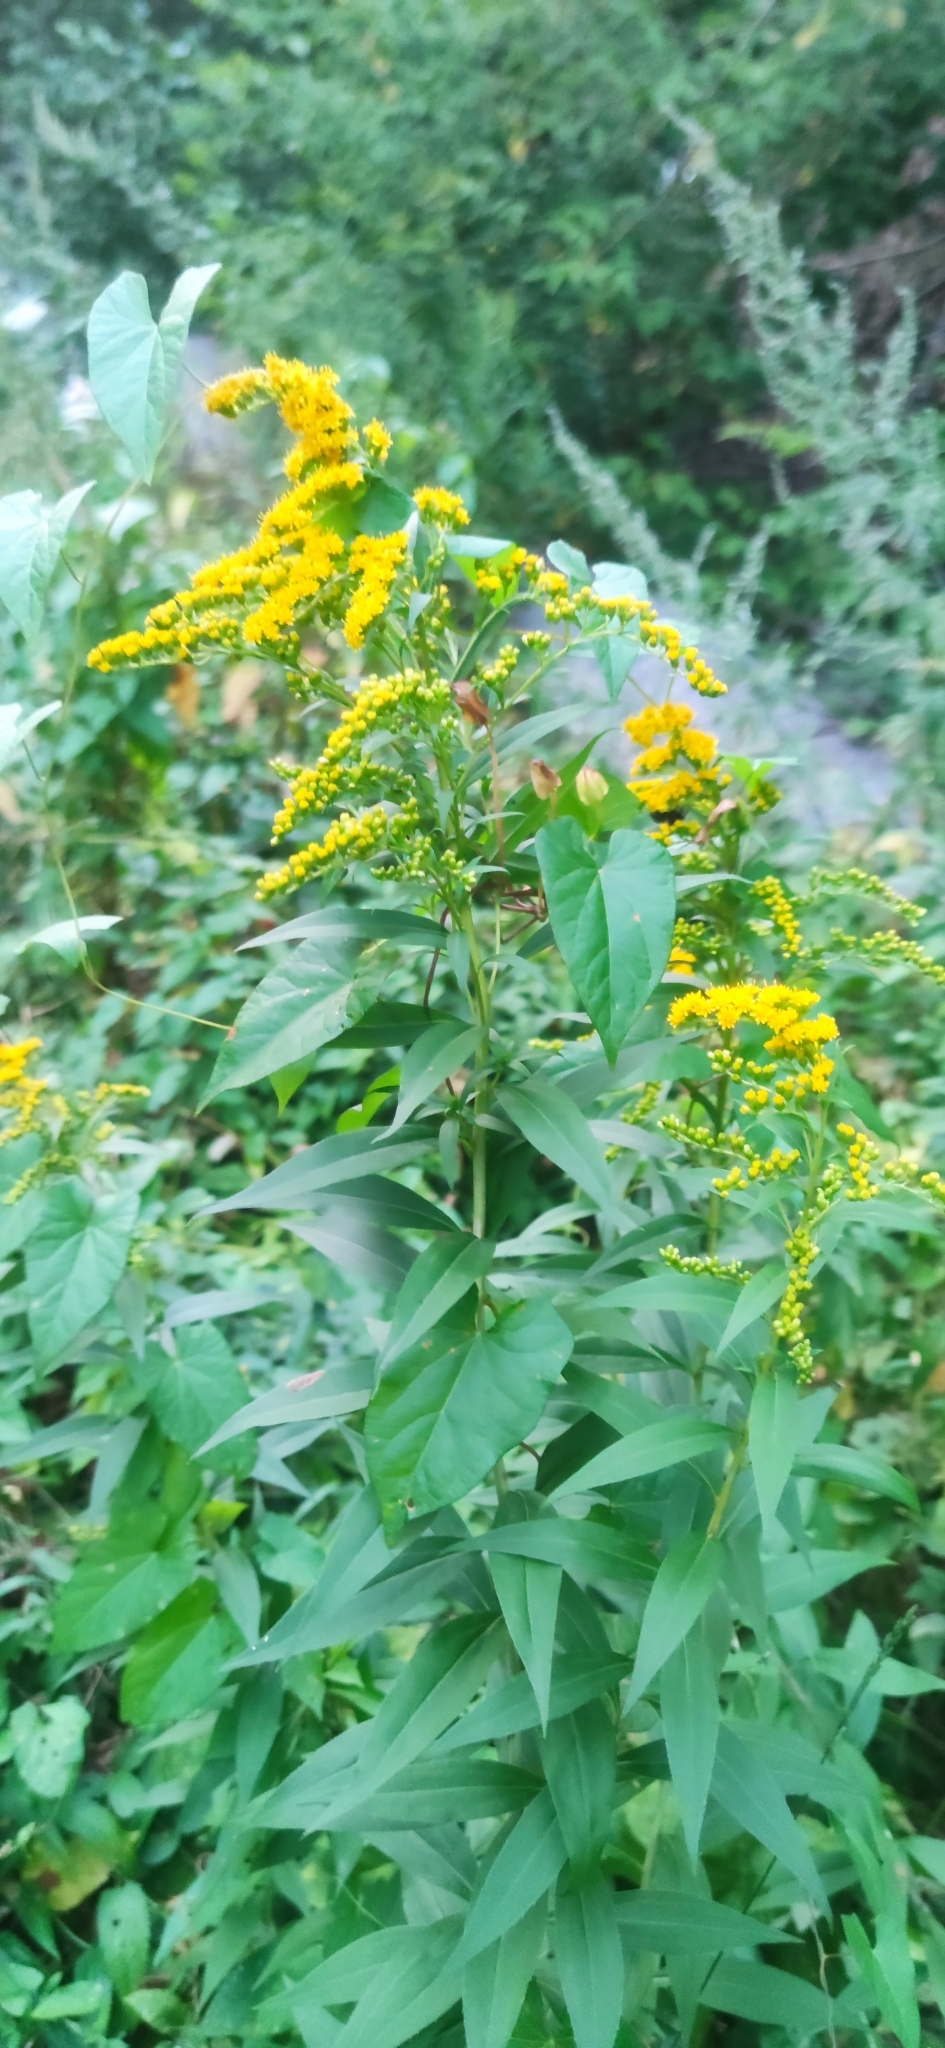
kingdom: Plantae
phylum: Tracheophyta
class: Magnoliopsida
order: Asterales
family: Asteraceae
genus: Solidago
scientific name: Solidago gigantea
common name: Giant goldenrod
